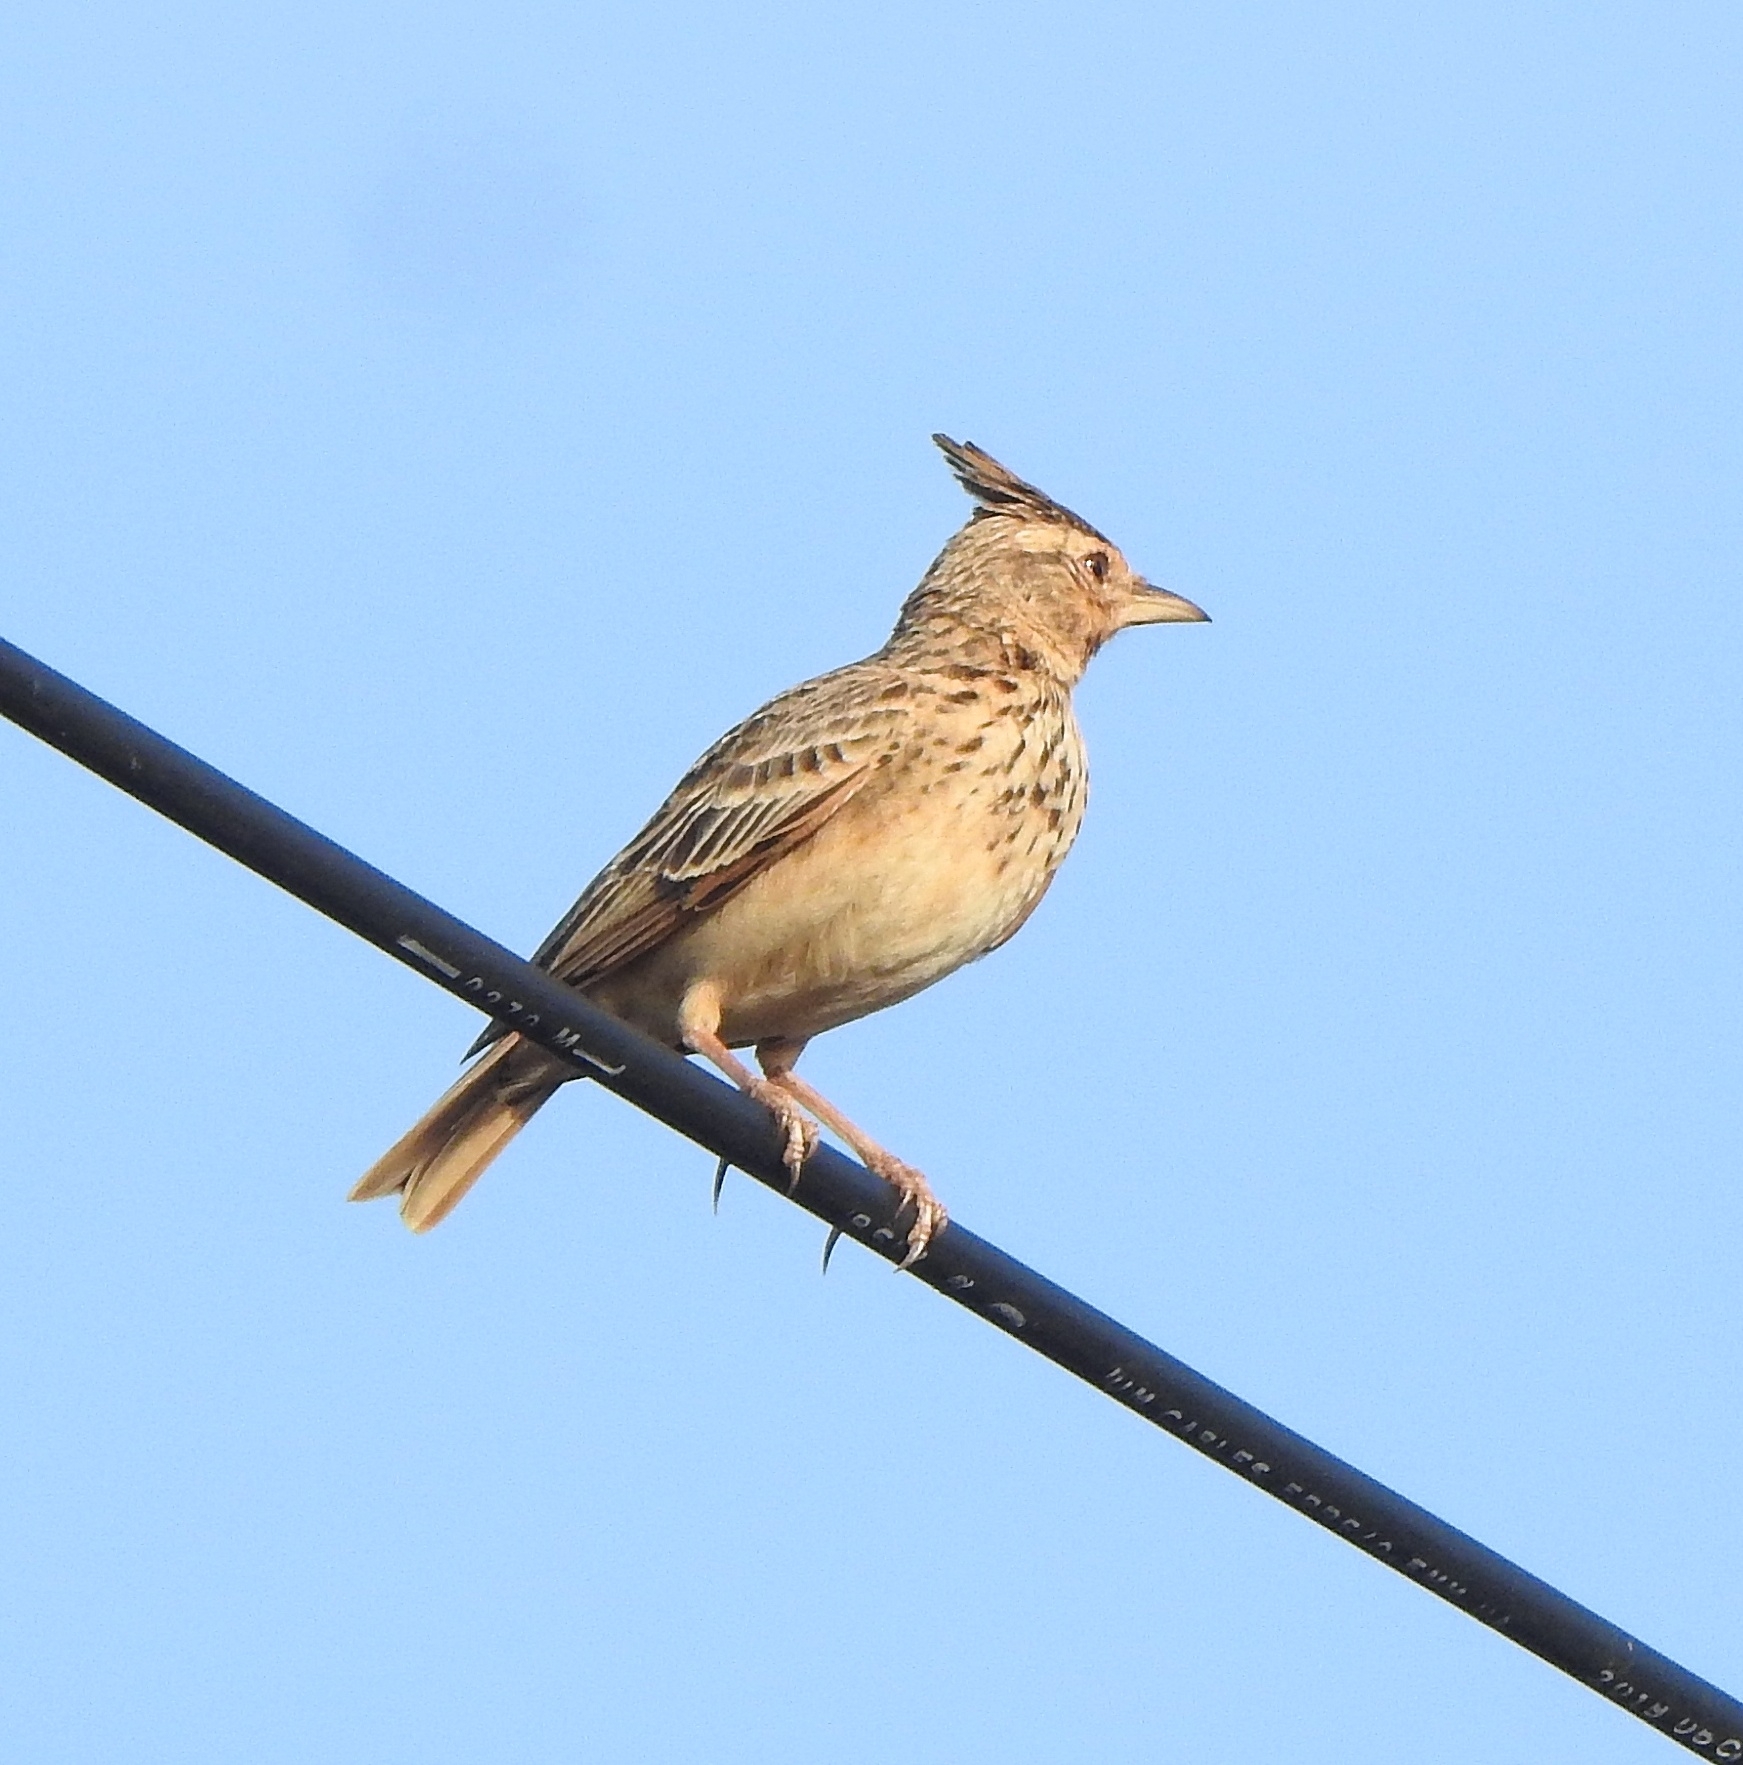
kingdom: Animalia
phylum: Chordata
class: Aves
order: Passeriformes
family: Alaudidae
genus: Galerida
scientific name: Galerida malabarica
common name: Malabar lark
